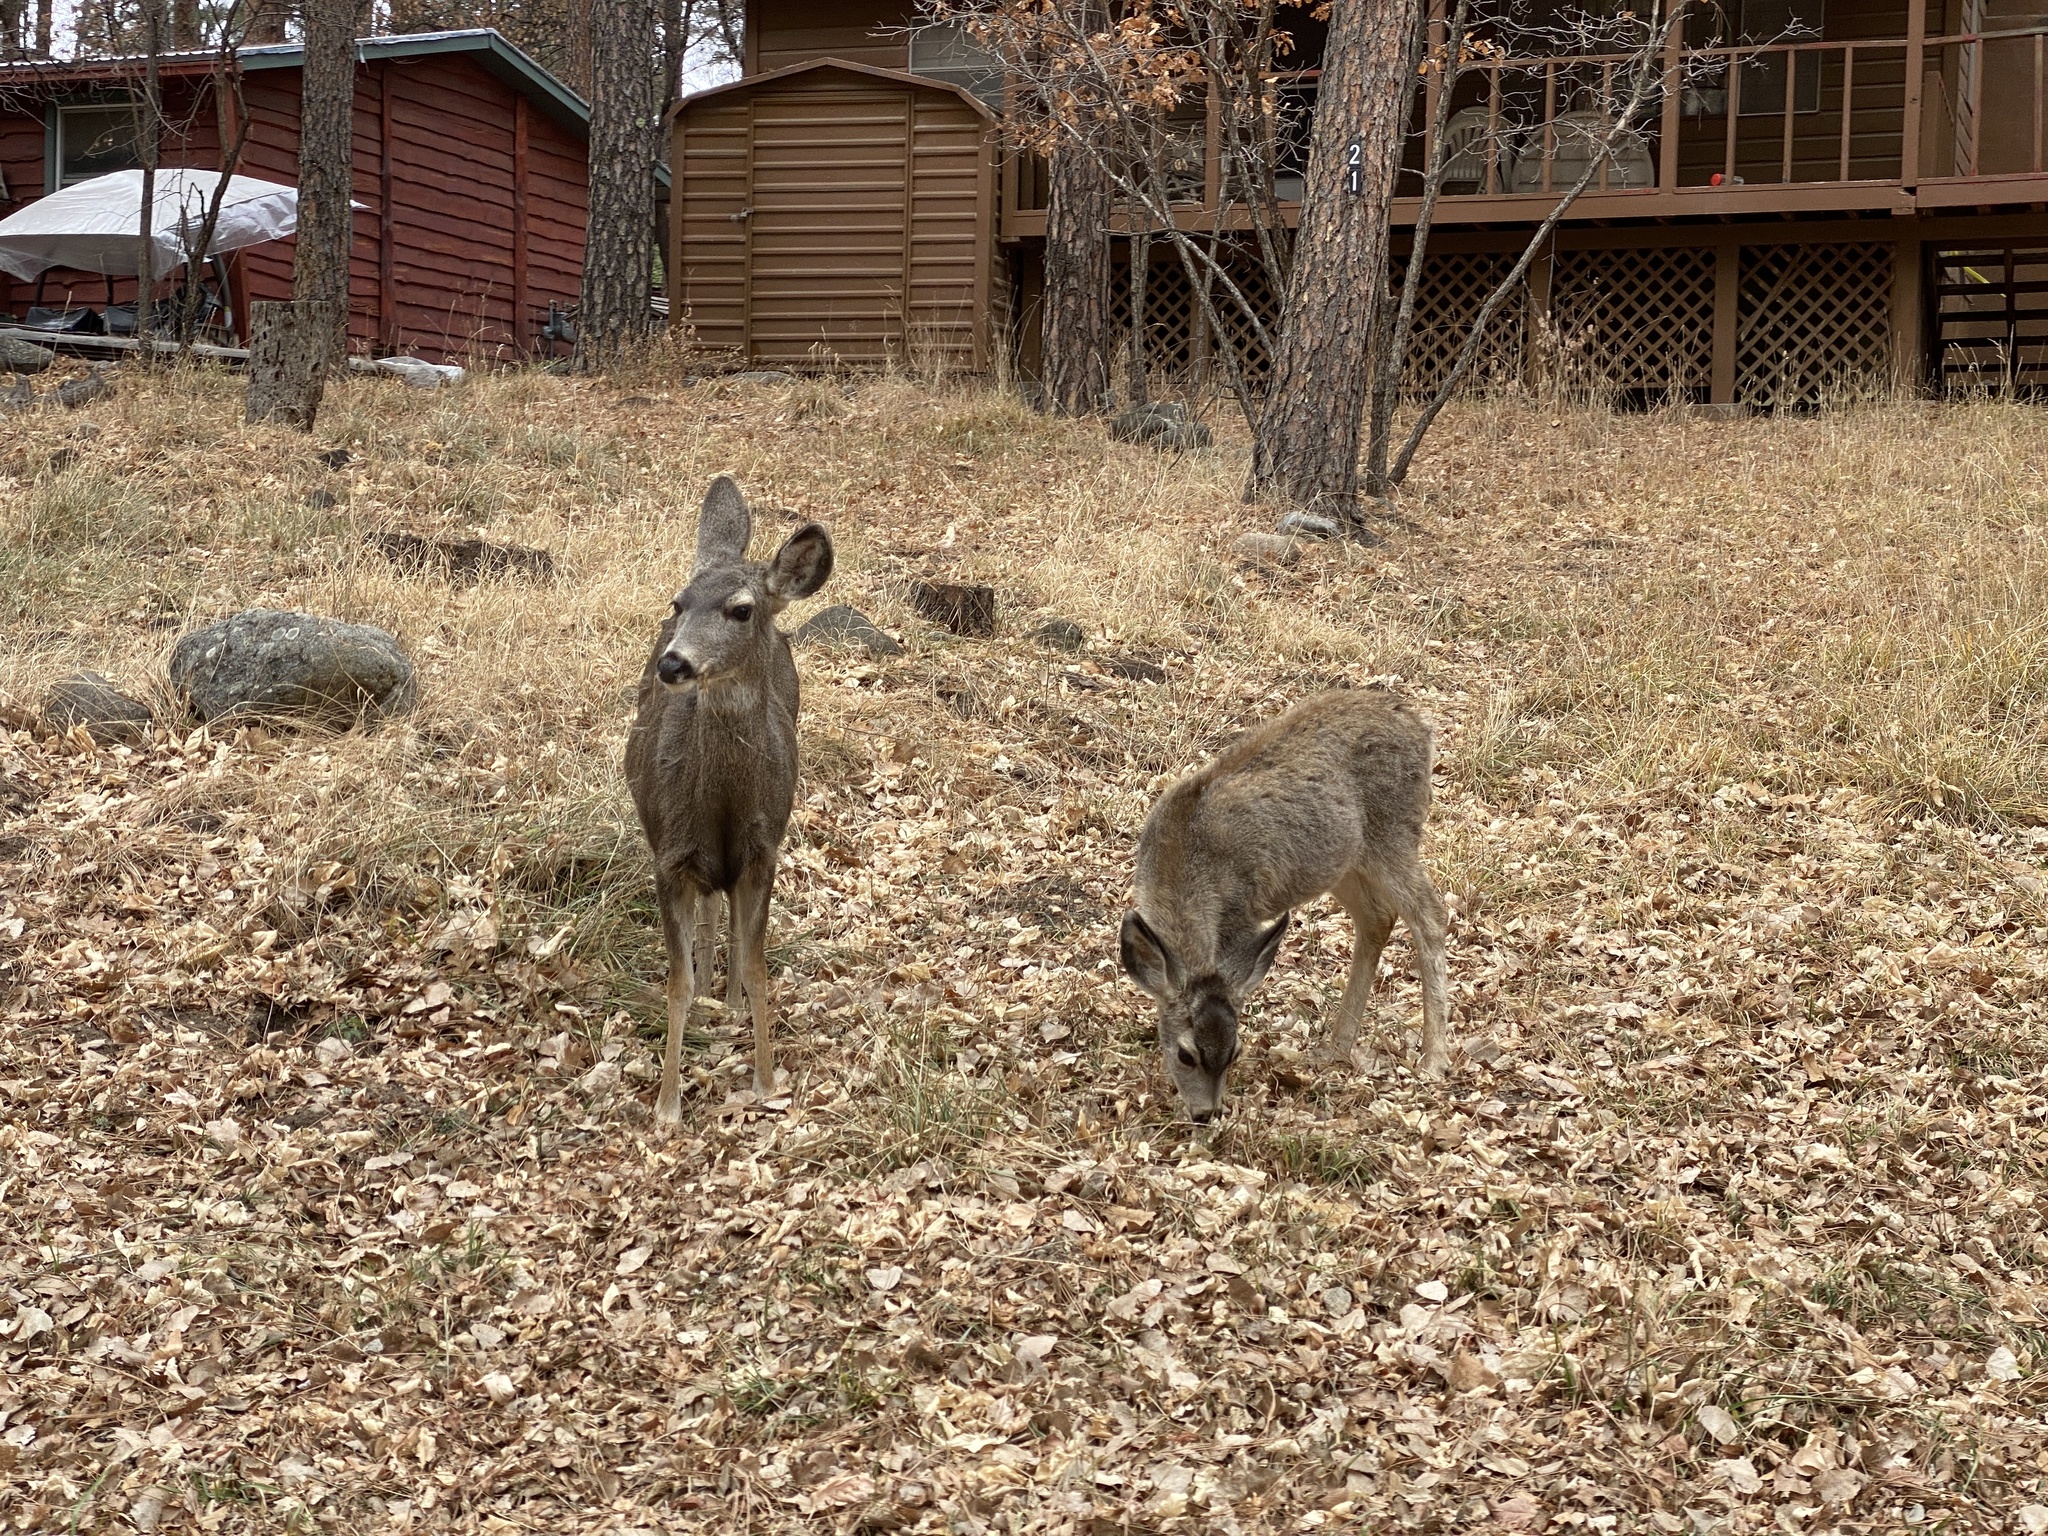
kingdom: Animalia
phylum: Chordata
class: Mammalia
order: Artiodactyla
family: Cervidae
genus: Odocoileus
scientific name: Odocoileus hemionus
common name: Mule deer
